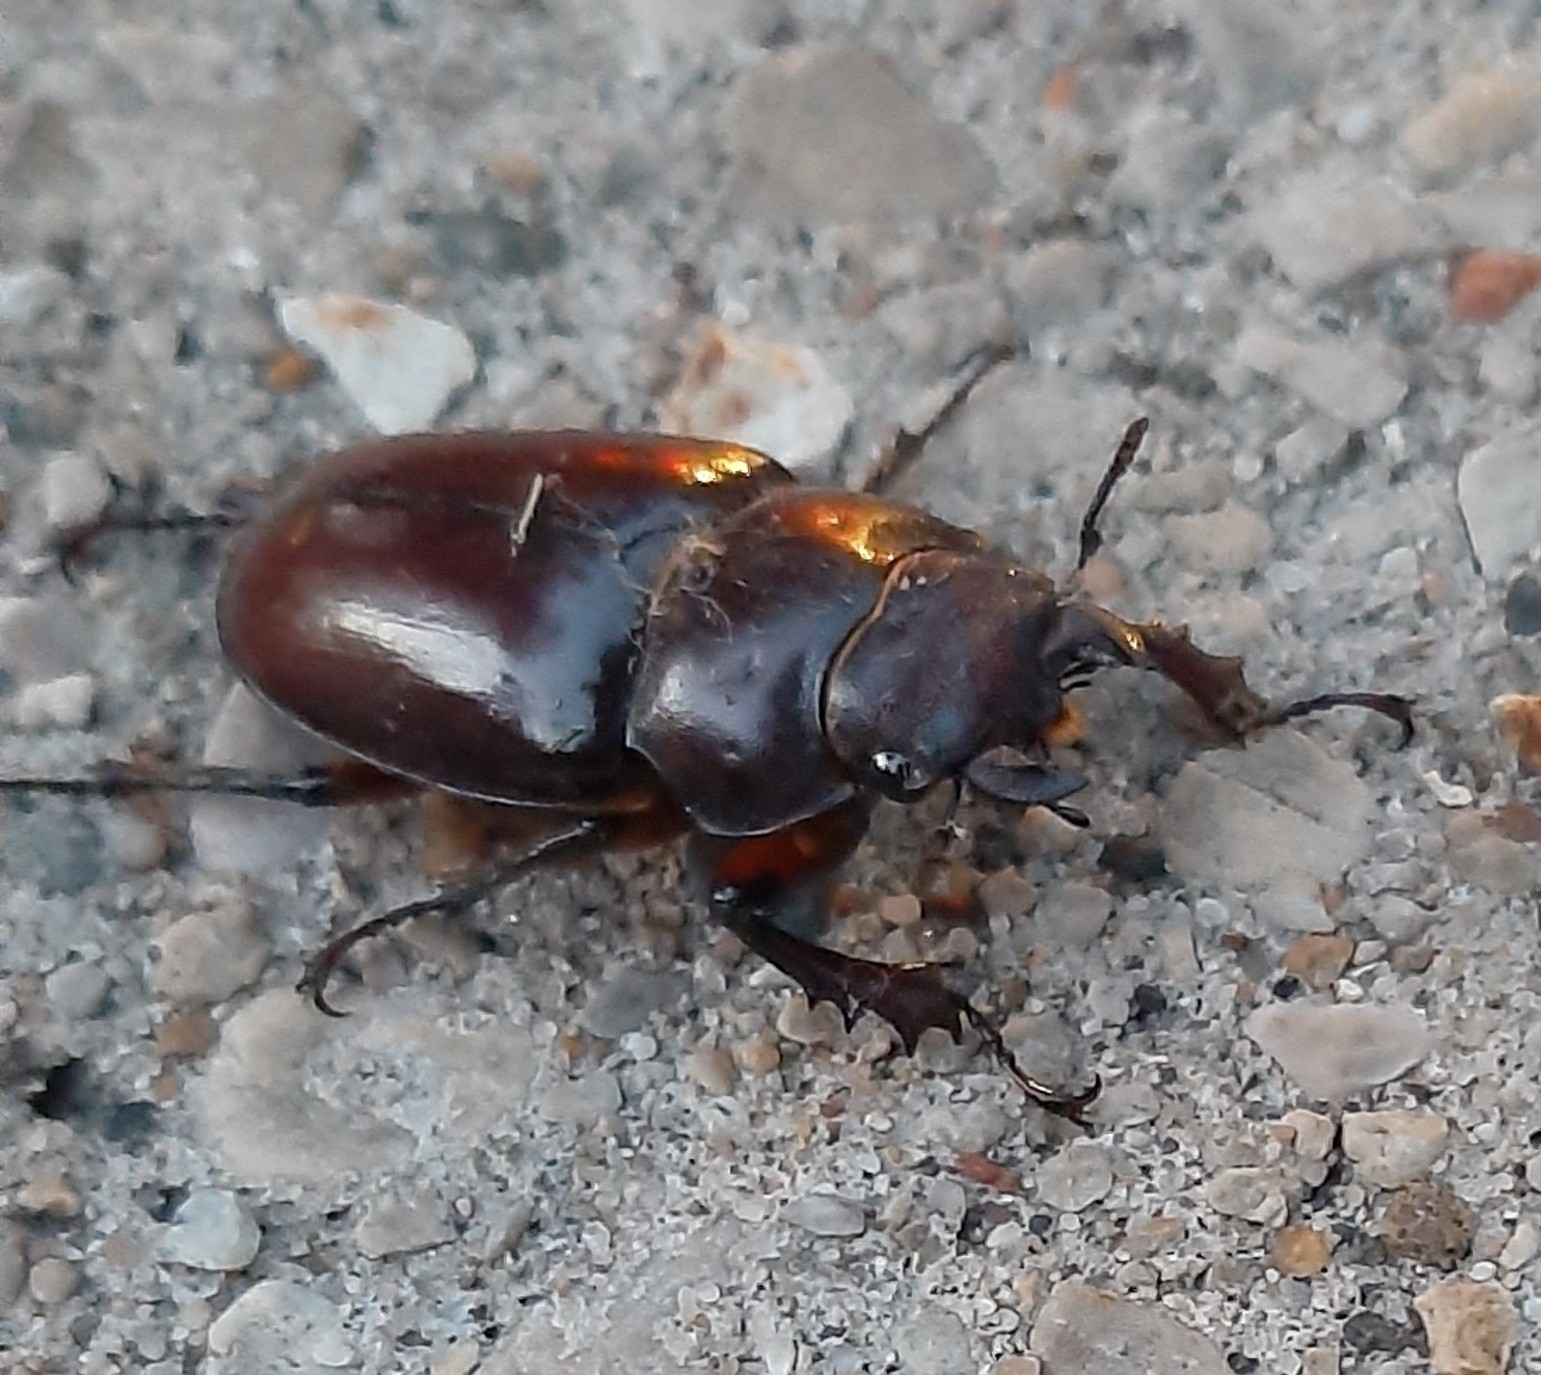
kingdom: Animalia
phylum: Arthropoda
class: Insecta
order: Coleoptera
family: Lucanidae
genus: Lucanus
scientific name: Lucanus capreolus
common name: Stag beetle
